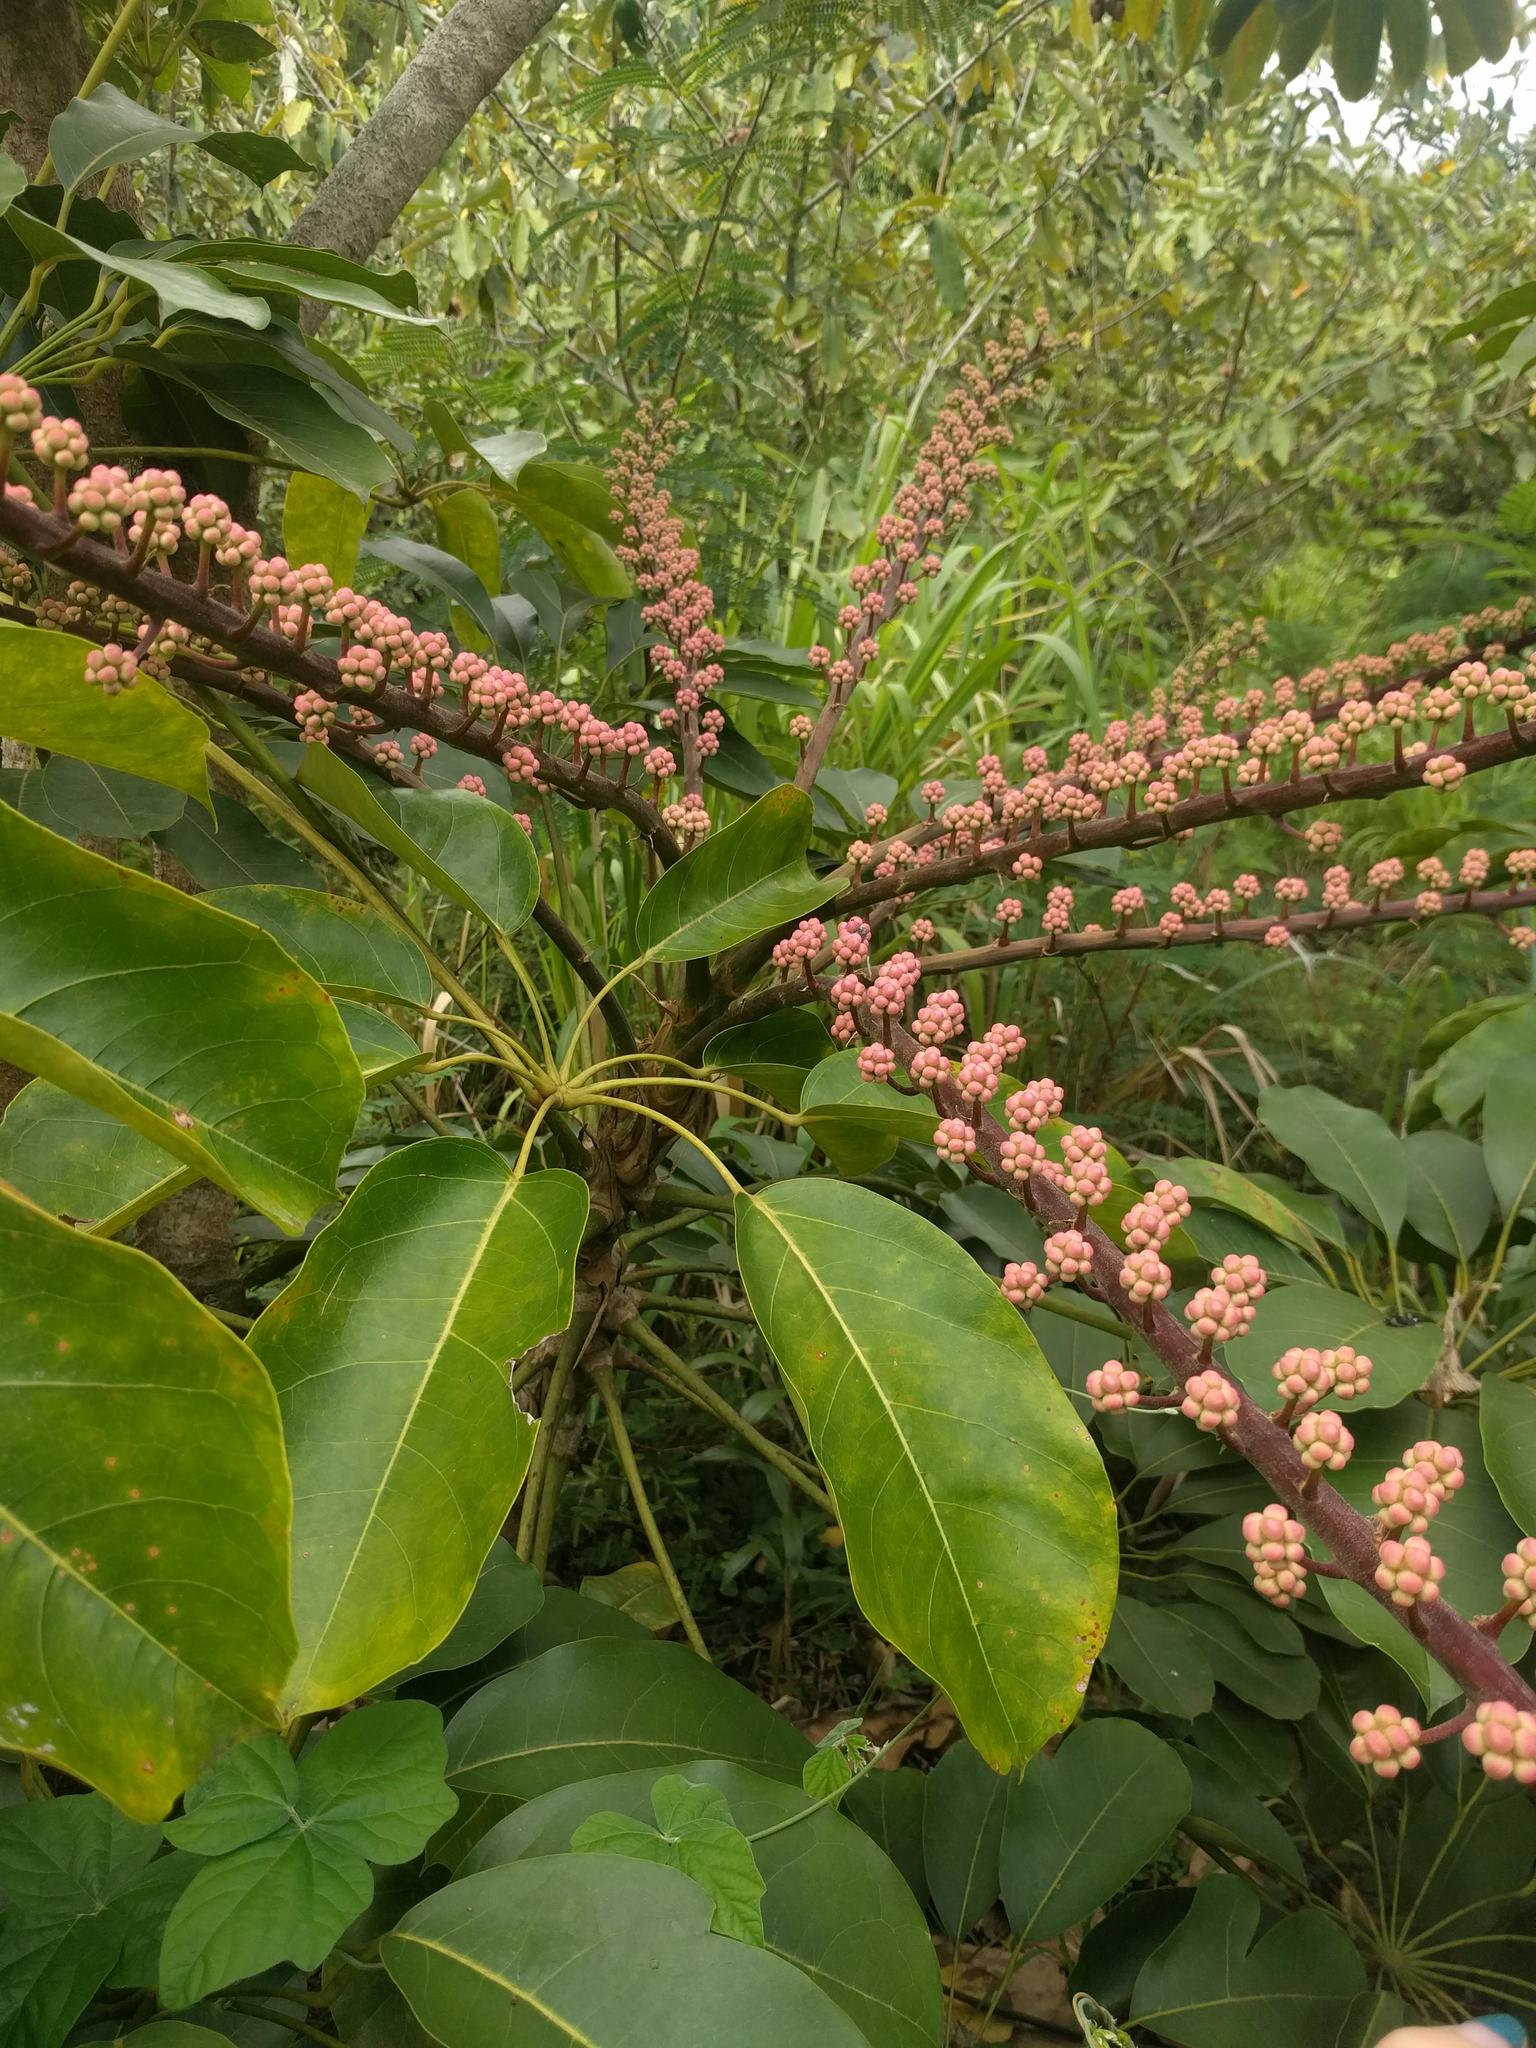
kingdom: Plantae
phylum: Tracheophyta
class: Magnoliopsida
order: Apiales
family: Araliaceae
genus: Heptapleurum
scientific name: Heptapleurum actinophyllum
